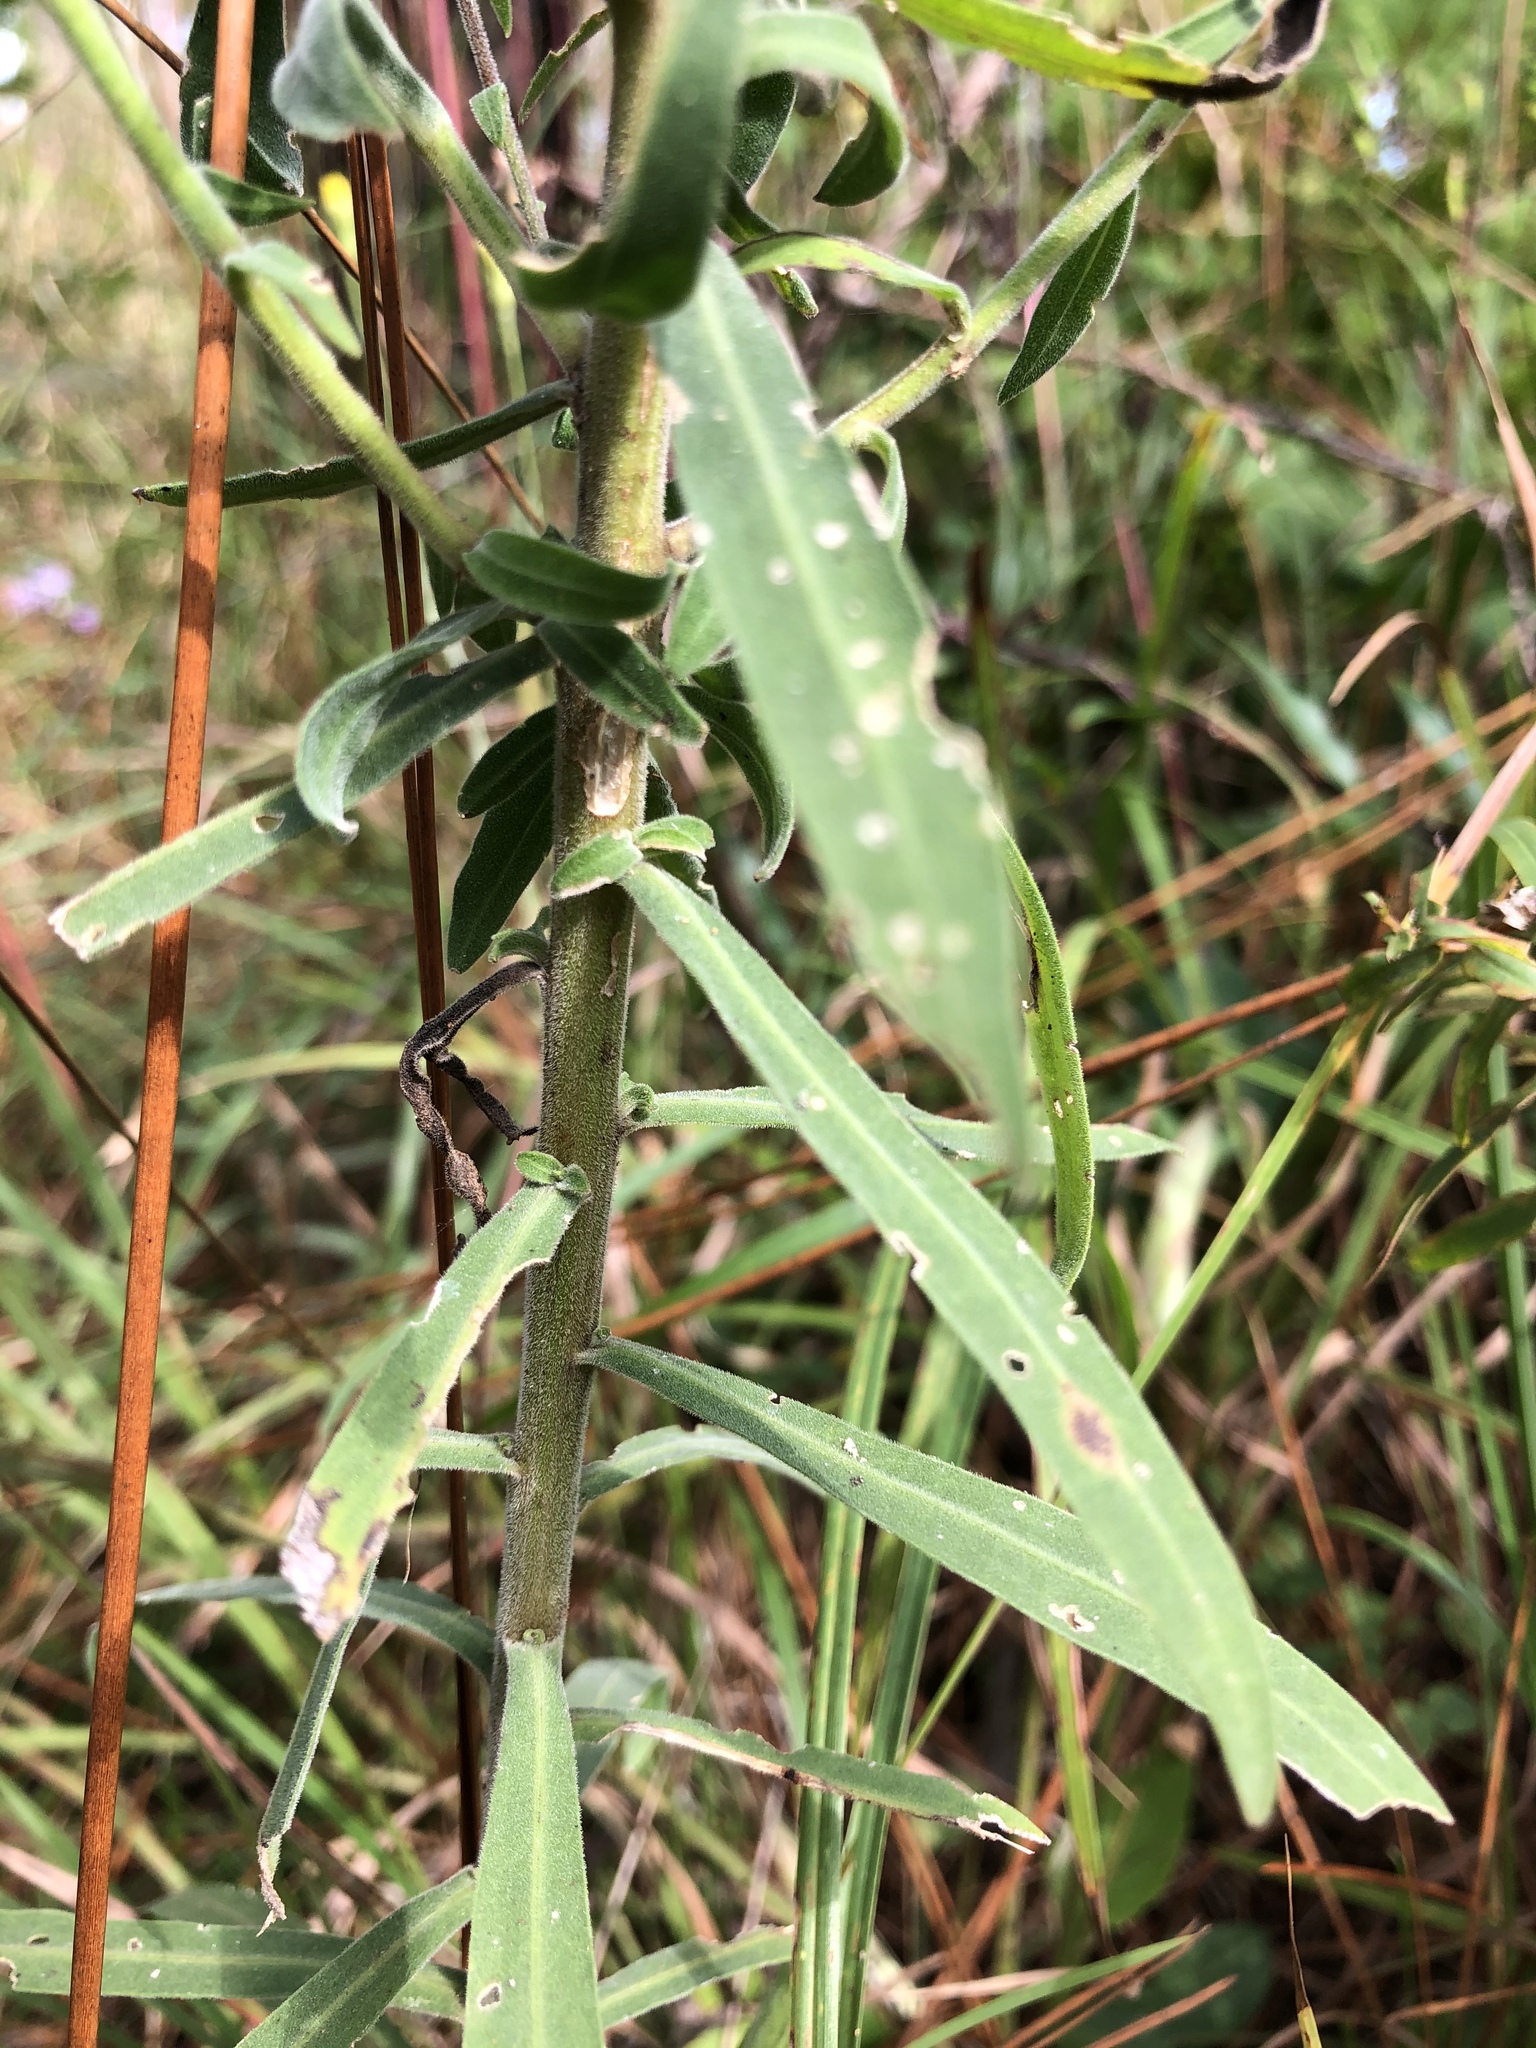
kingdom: Plantae
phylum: Tracheophyta
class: Magnoliopsida
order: Asterales
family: Asteraceae
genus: Liatris
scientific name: Liatris squarrulosa
